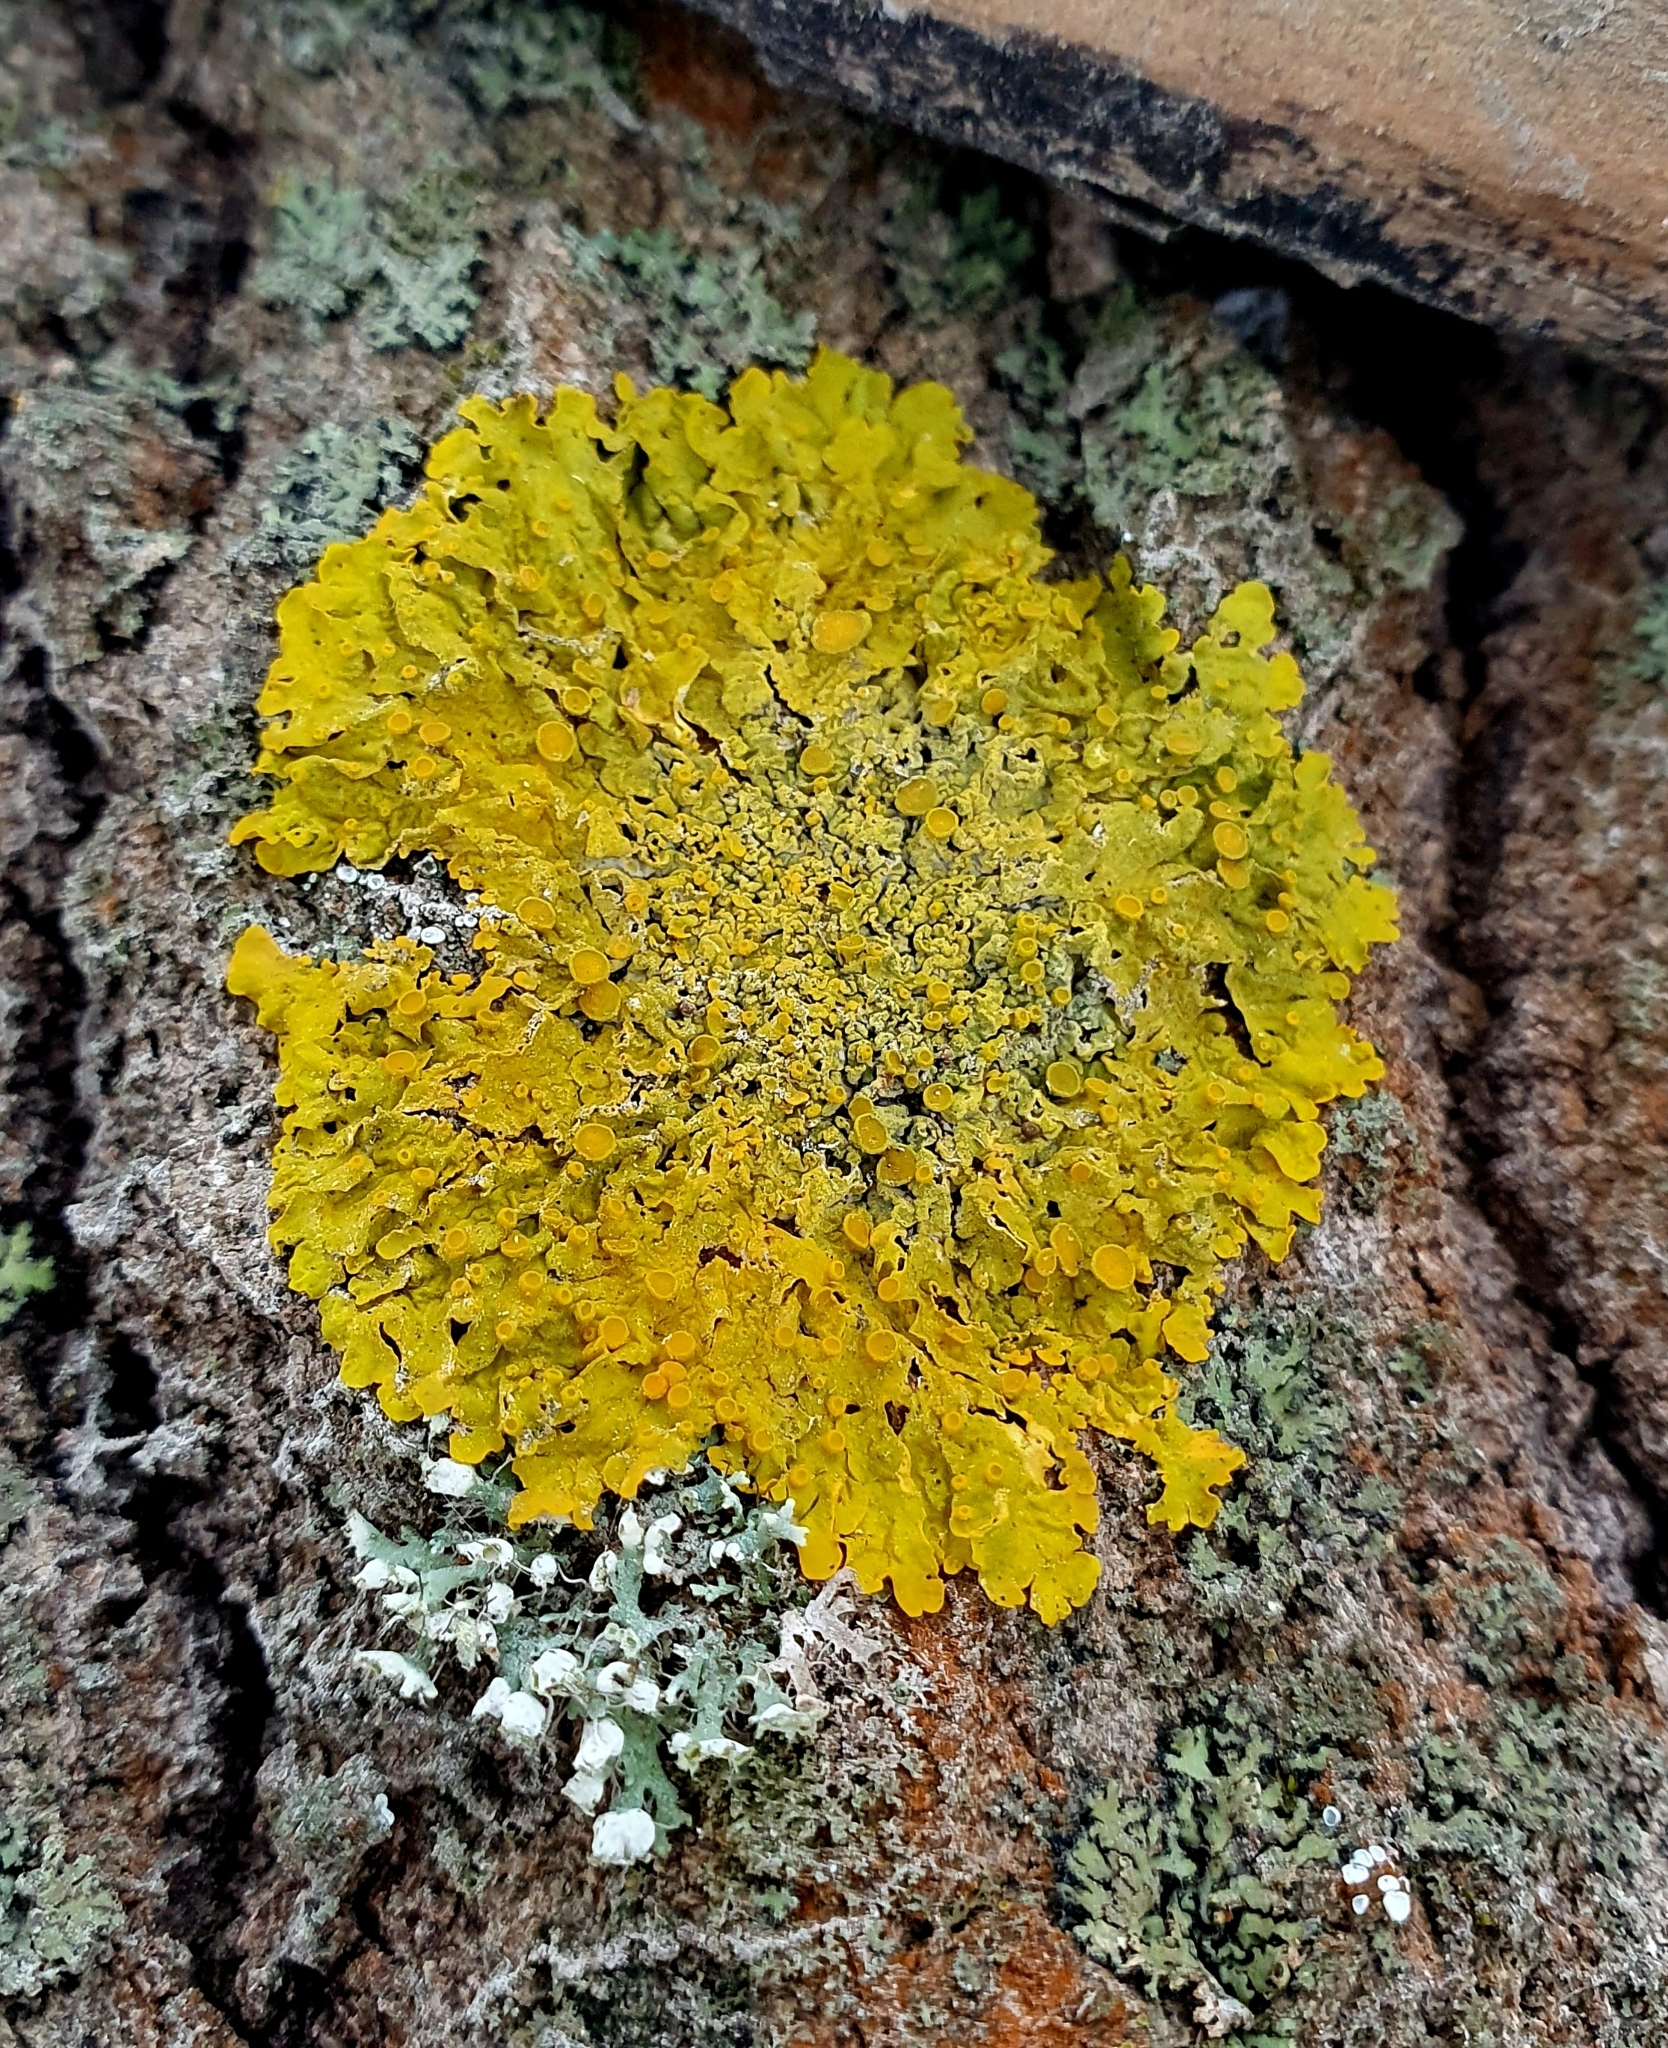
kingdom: Fungi
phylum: Ascomycota
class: Lecanoromycetes
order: Teloschistales
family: Teloschistaceae
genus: Xanthoria
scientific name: Xanthoria parietina
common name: Common orange lichen
